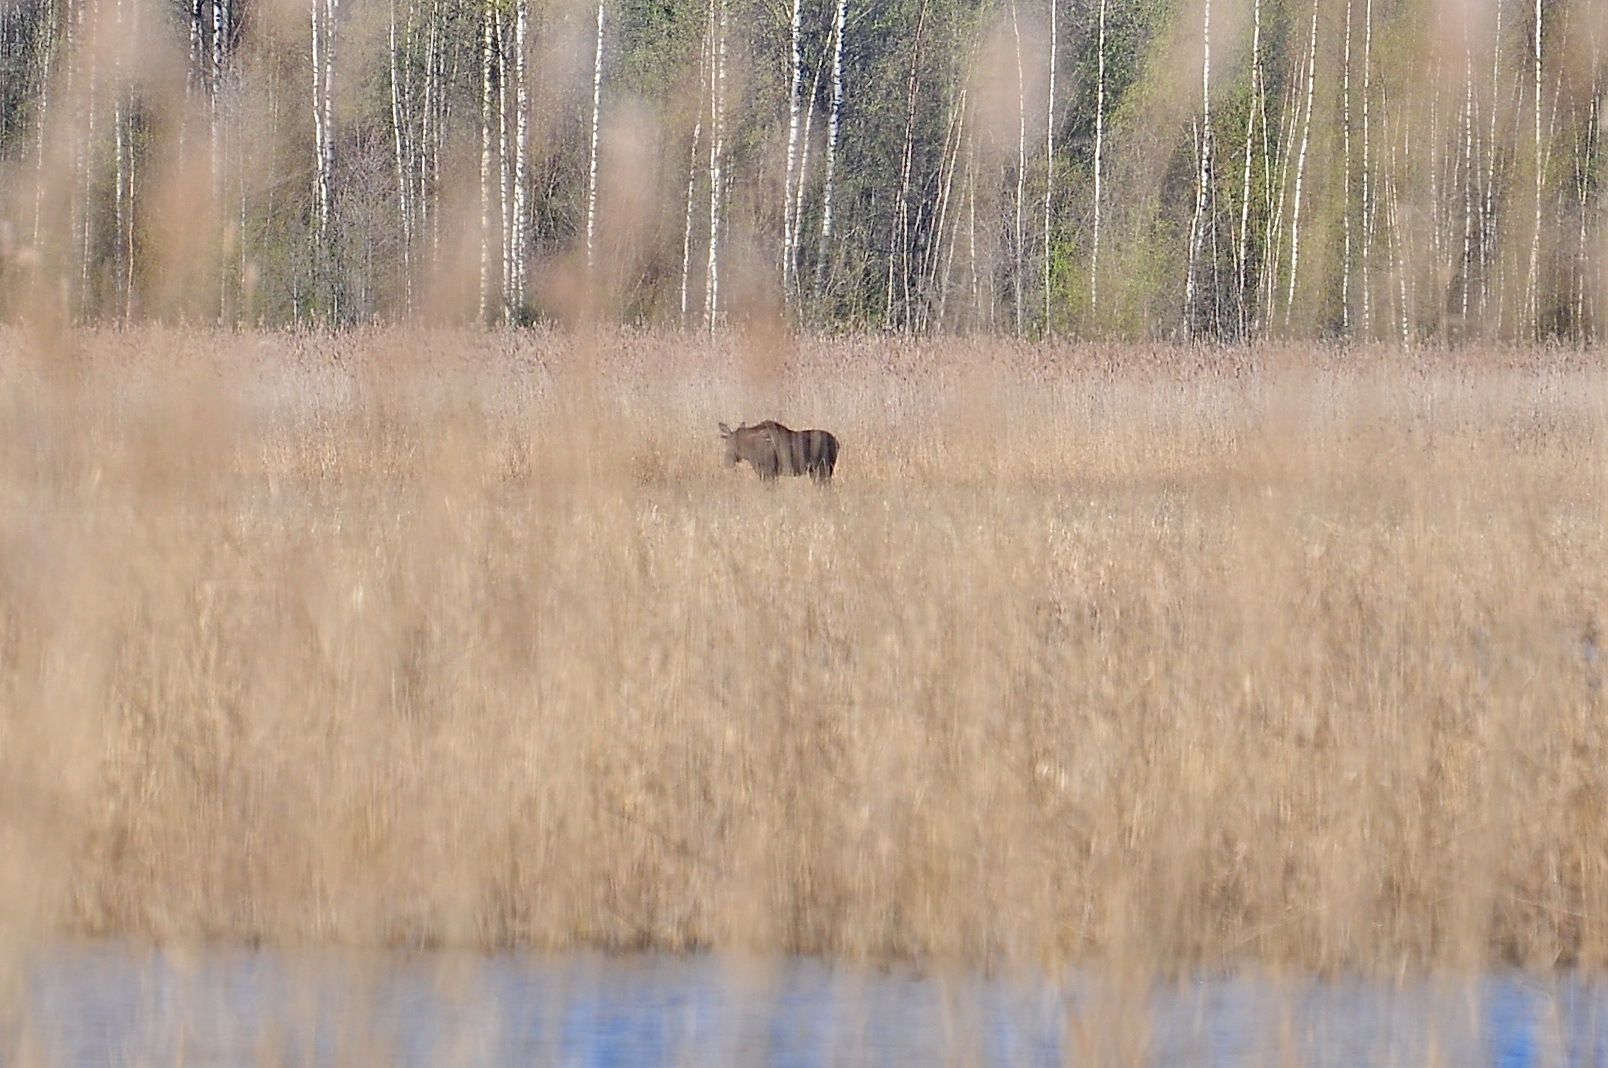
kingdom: Animalia
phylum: Chordata
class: Mammalia
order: Artiodactyla
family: Cervidae
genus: Alces
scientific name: Alces alces
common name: Moose
